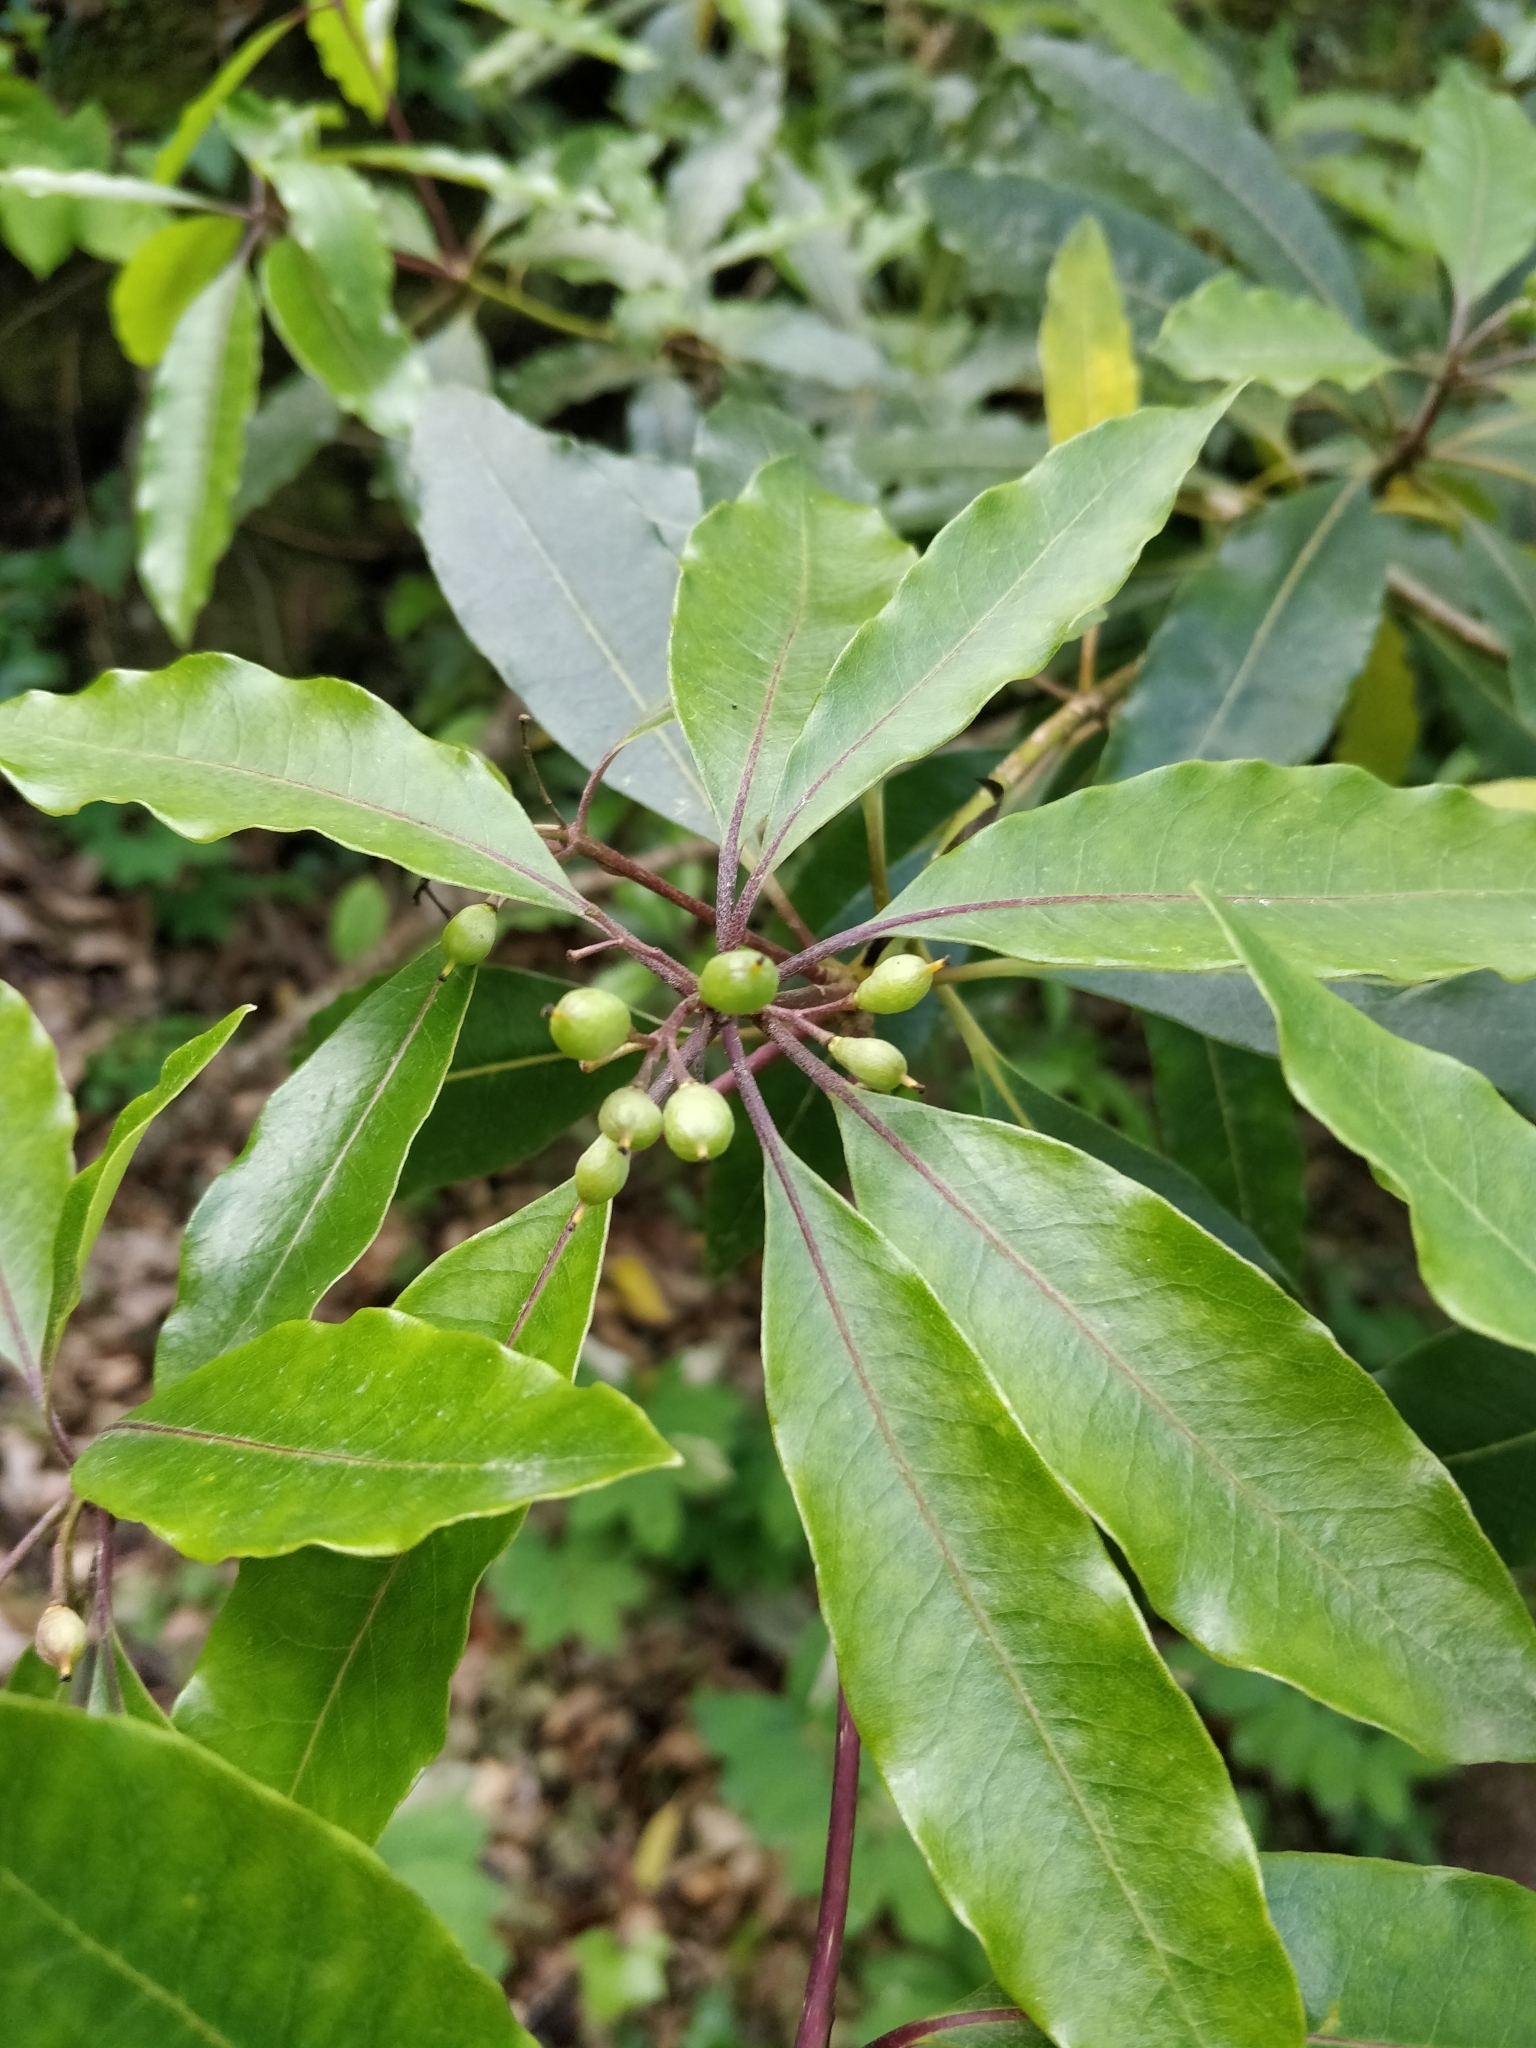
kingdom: Plantae
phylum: Tracheophyta
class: Magnoliopsida
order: Apiales
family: Pittosporaceae
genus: Pittosporum
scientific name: Pittosporum undulatum
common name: Australian cheesewood
